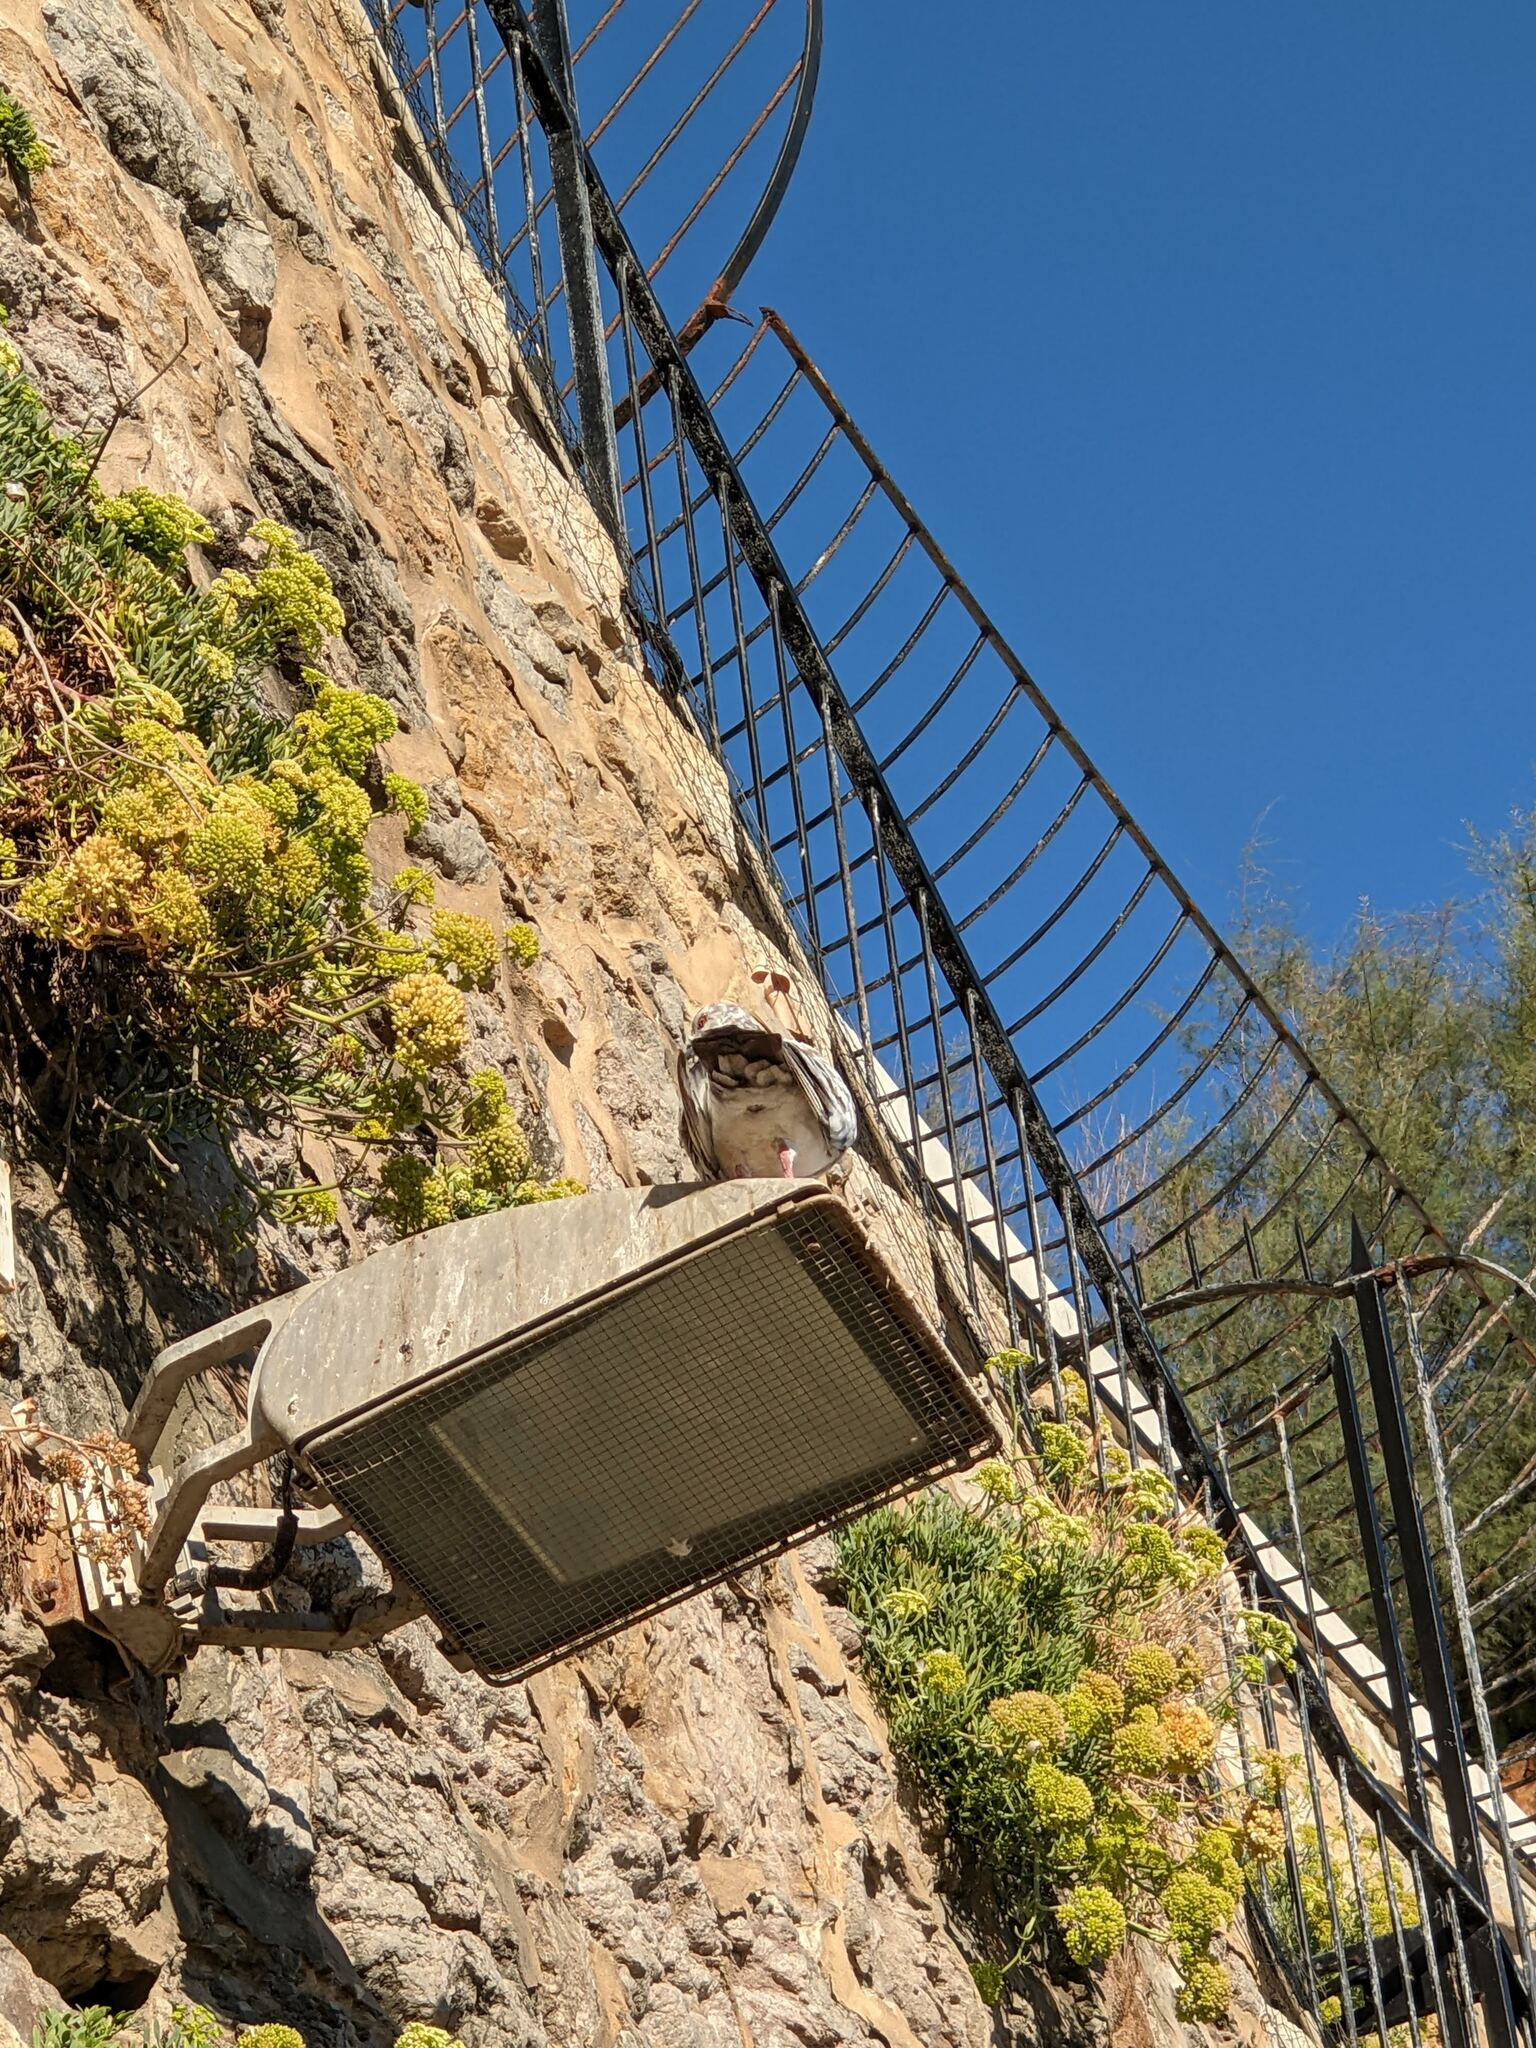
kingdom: Animalia
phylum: Chordata
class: Aves
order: Columbiformes
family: Columbidae
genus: Columba
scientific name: Columba livia
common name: Rock pigeon
